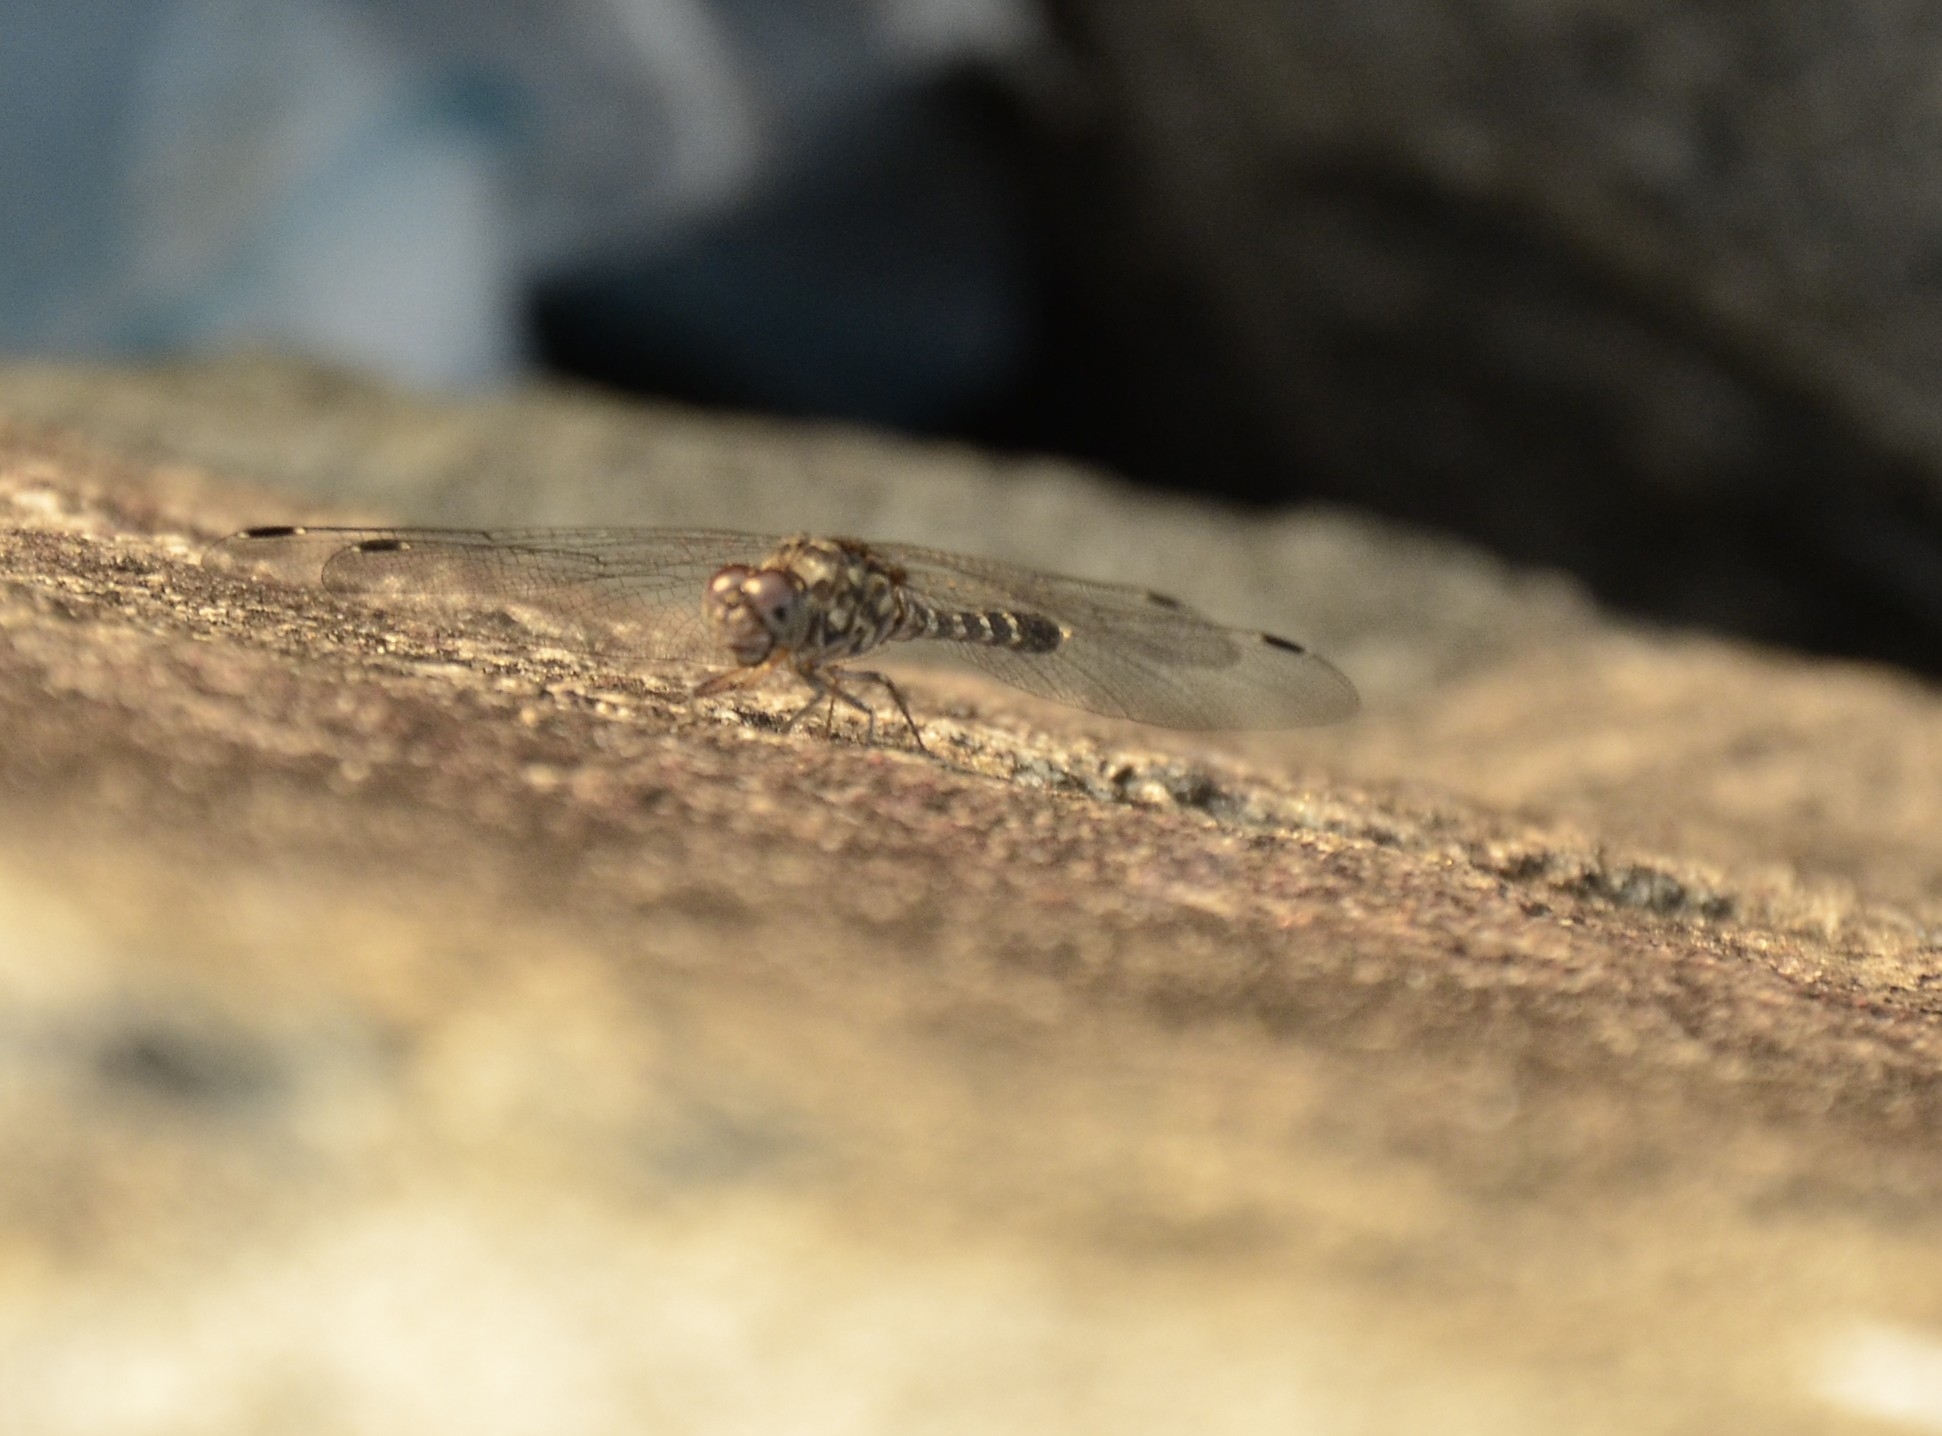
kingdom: Animalia
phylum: Arthropoda
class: Insecta
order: Odonata
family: Libellulidae
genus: Bradinopyga
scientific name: Bradinopyga geminata
